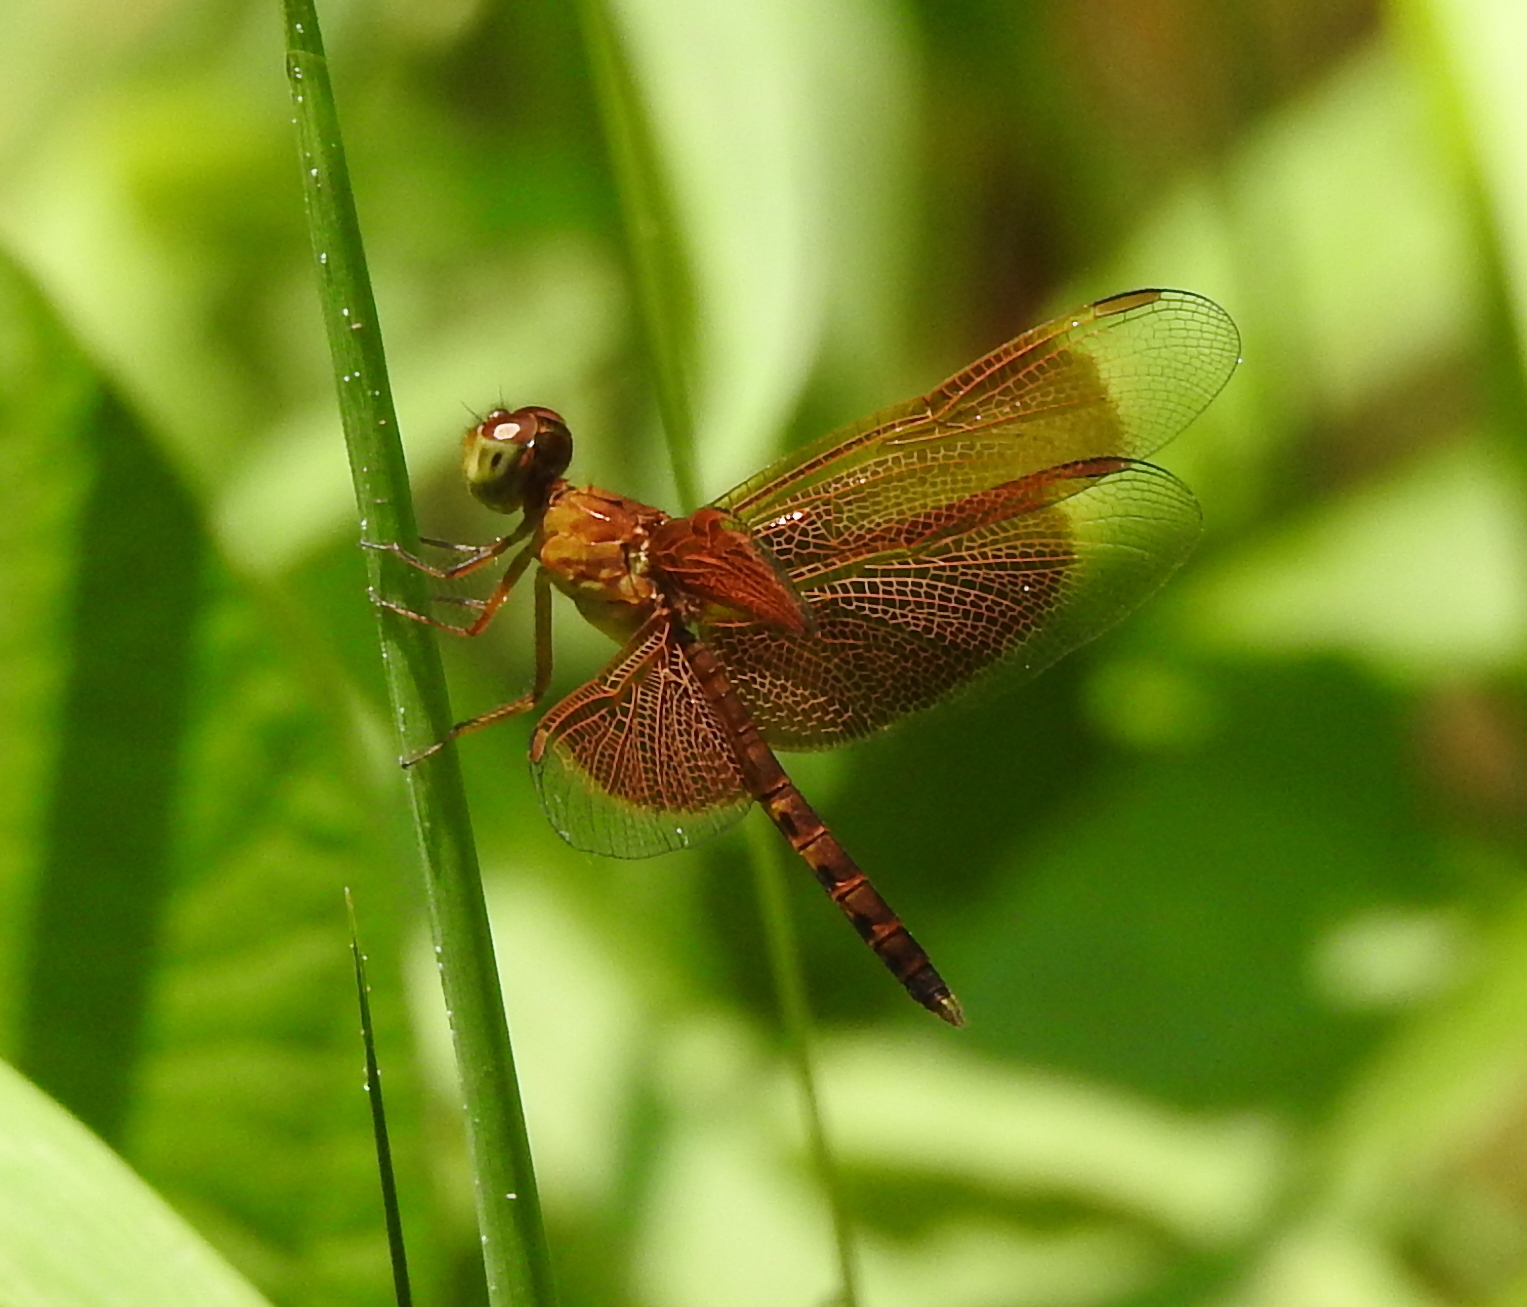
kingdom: Animalia
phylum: Arthropoda
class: Insecta
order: Odonata
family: Libellulidae
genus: Neurothemis
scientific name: Neurothemis fluctuans
